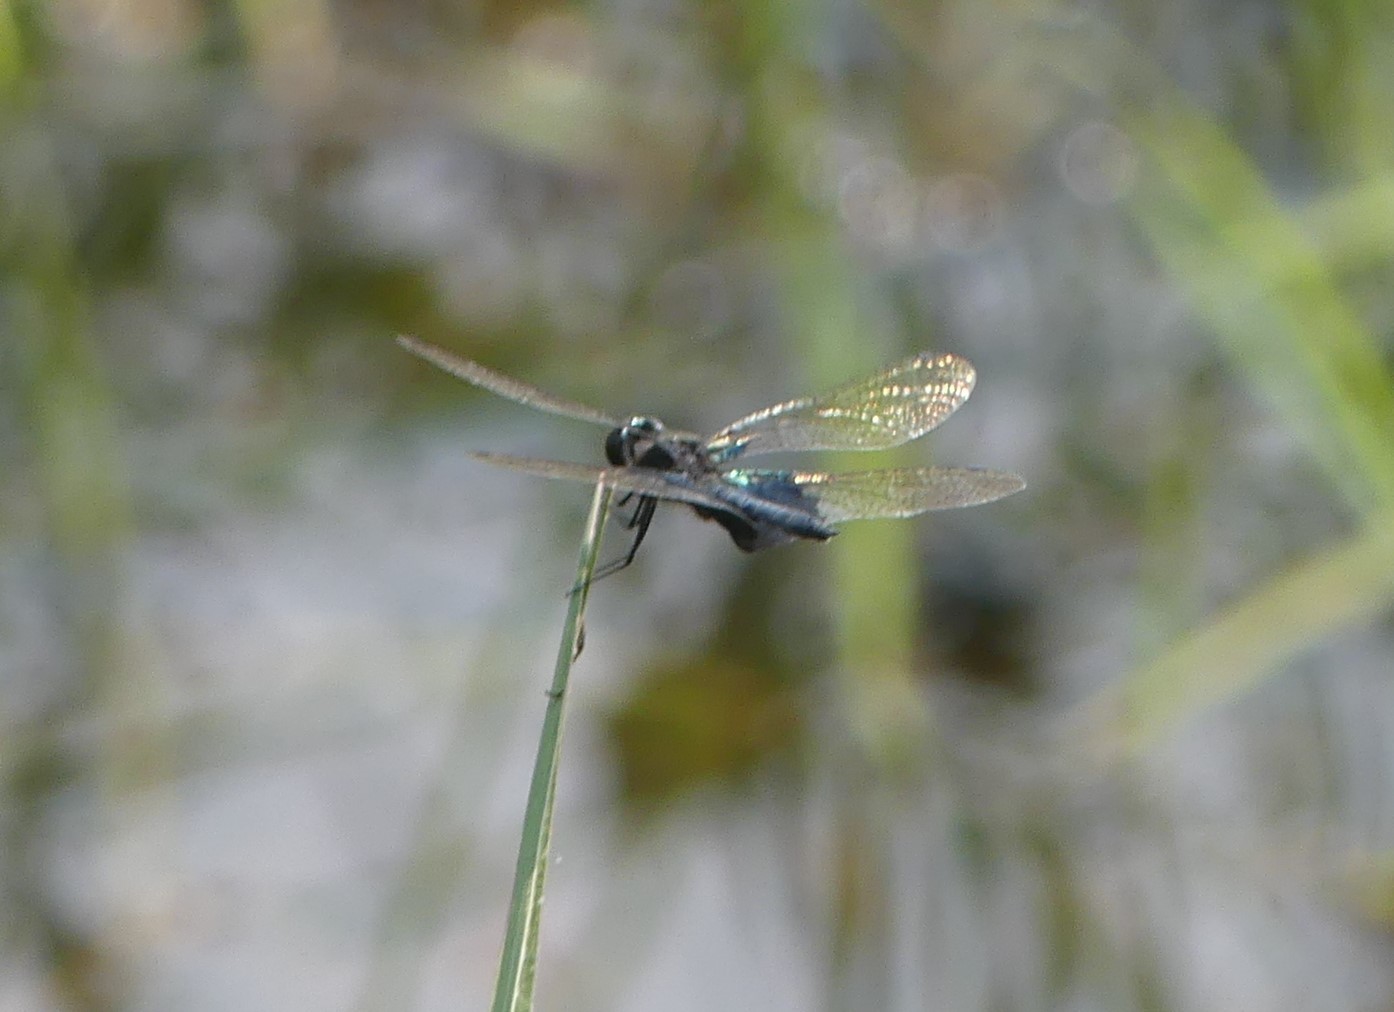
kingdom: Animalia
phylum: Arthropoda
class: Insecta
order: Odonata
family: Libellulidae
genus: Rhyothemis
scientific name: Rhyothemis triangularis
